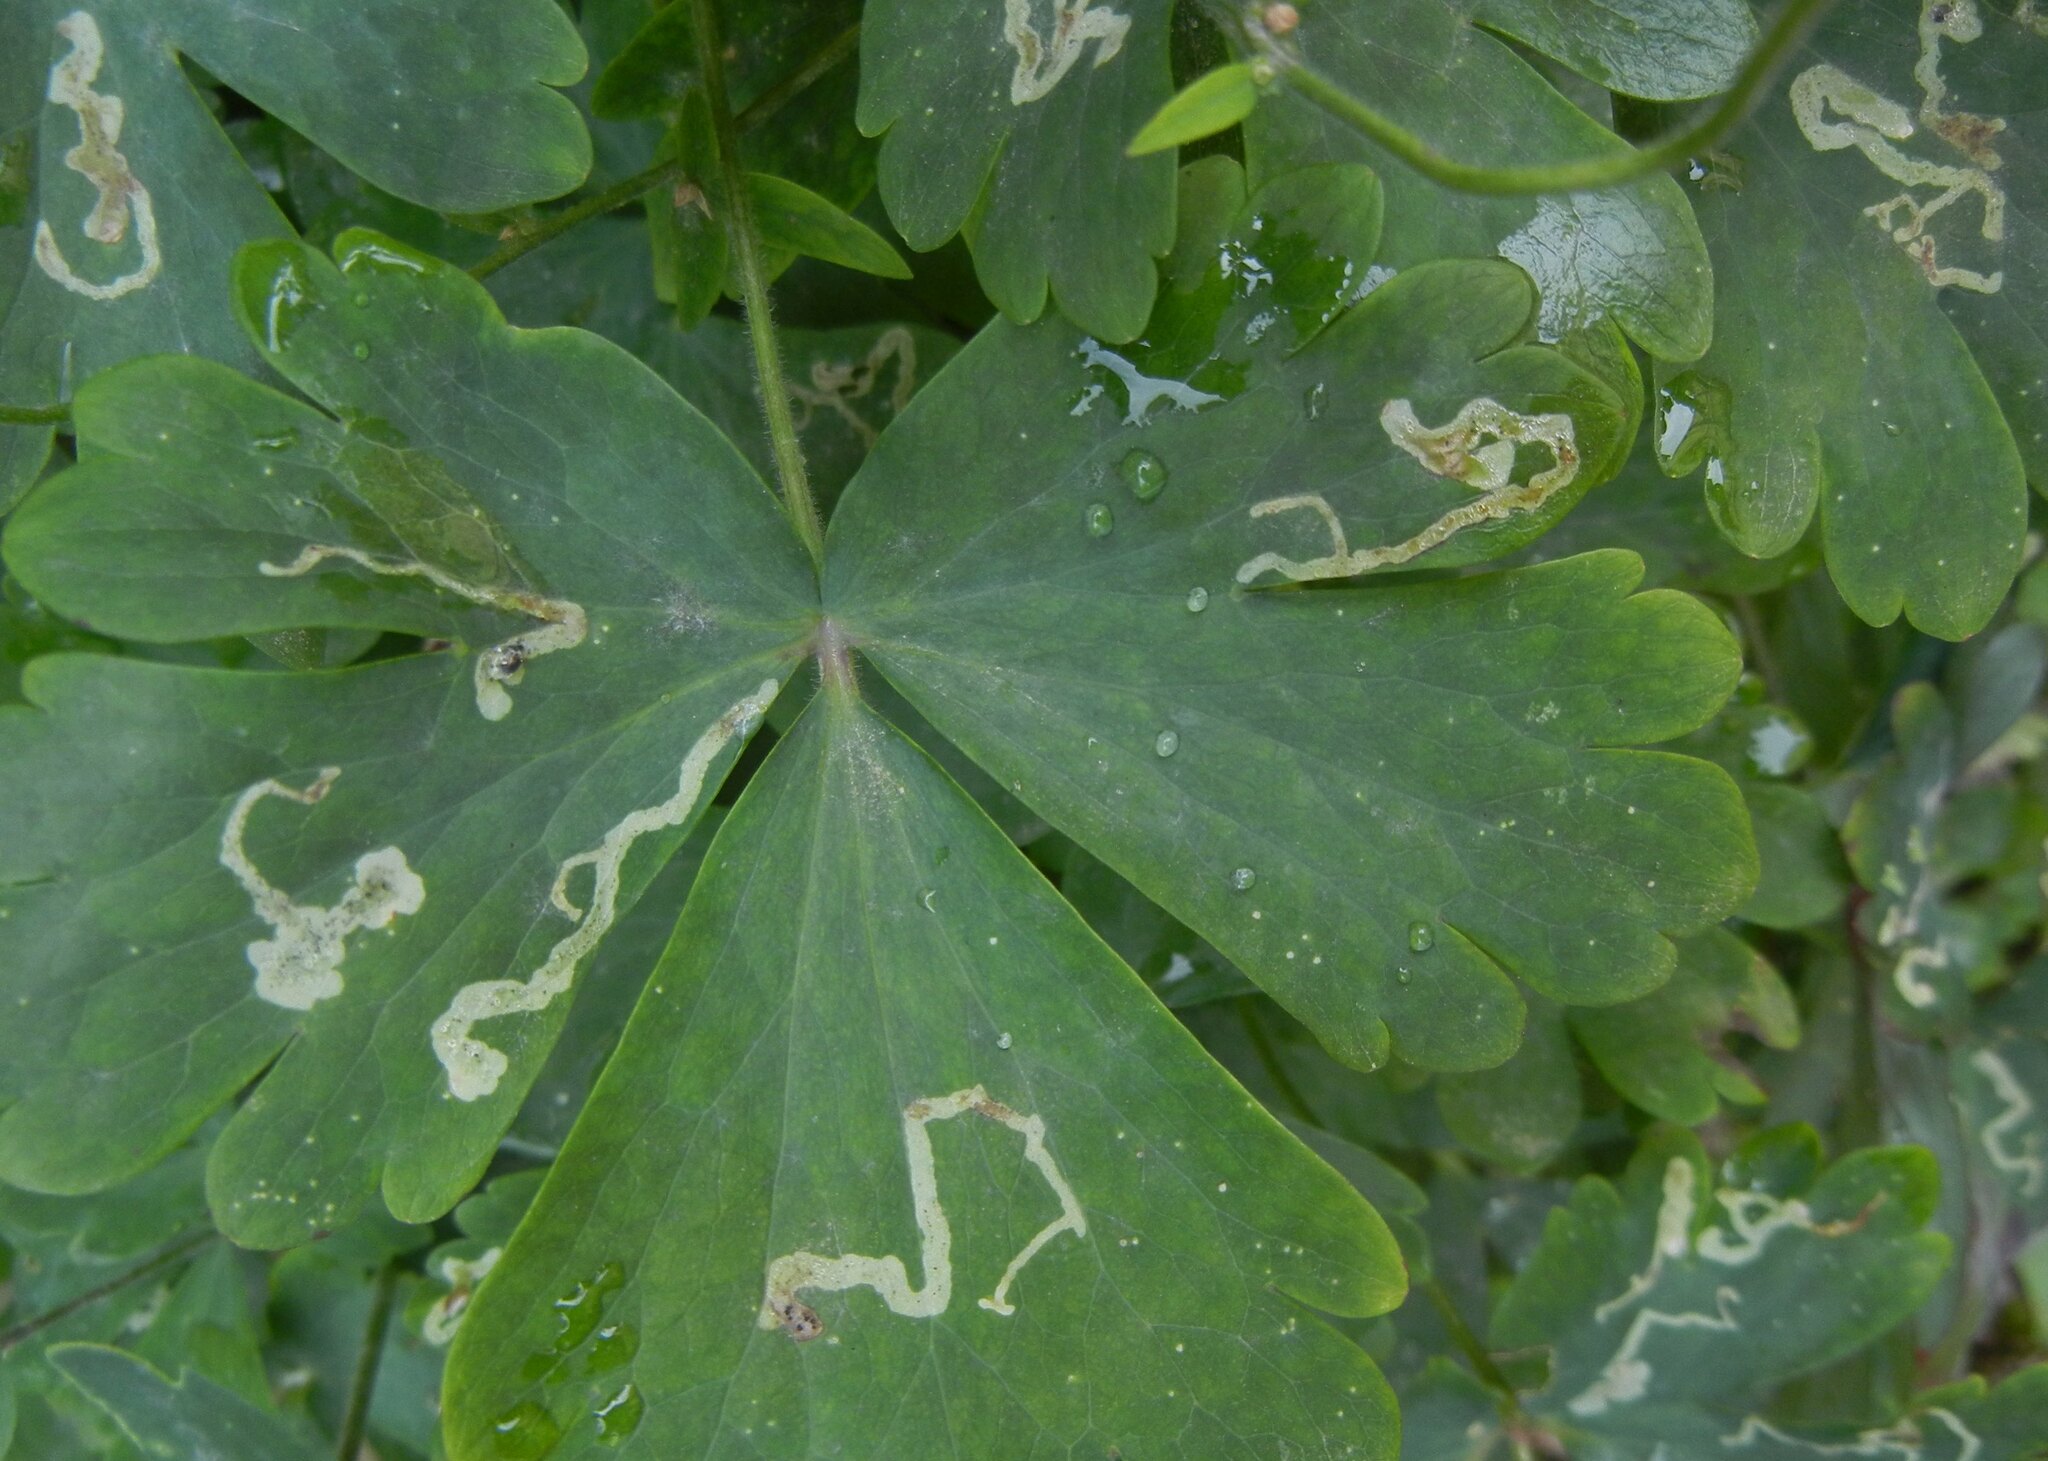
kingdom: Animalia
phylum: Arthropoda
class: Insecta
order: Diptera
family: Agromyzidae
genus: Phytomyza
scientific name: Phytomyza ancholiae
